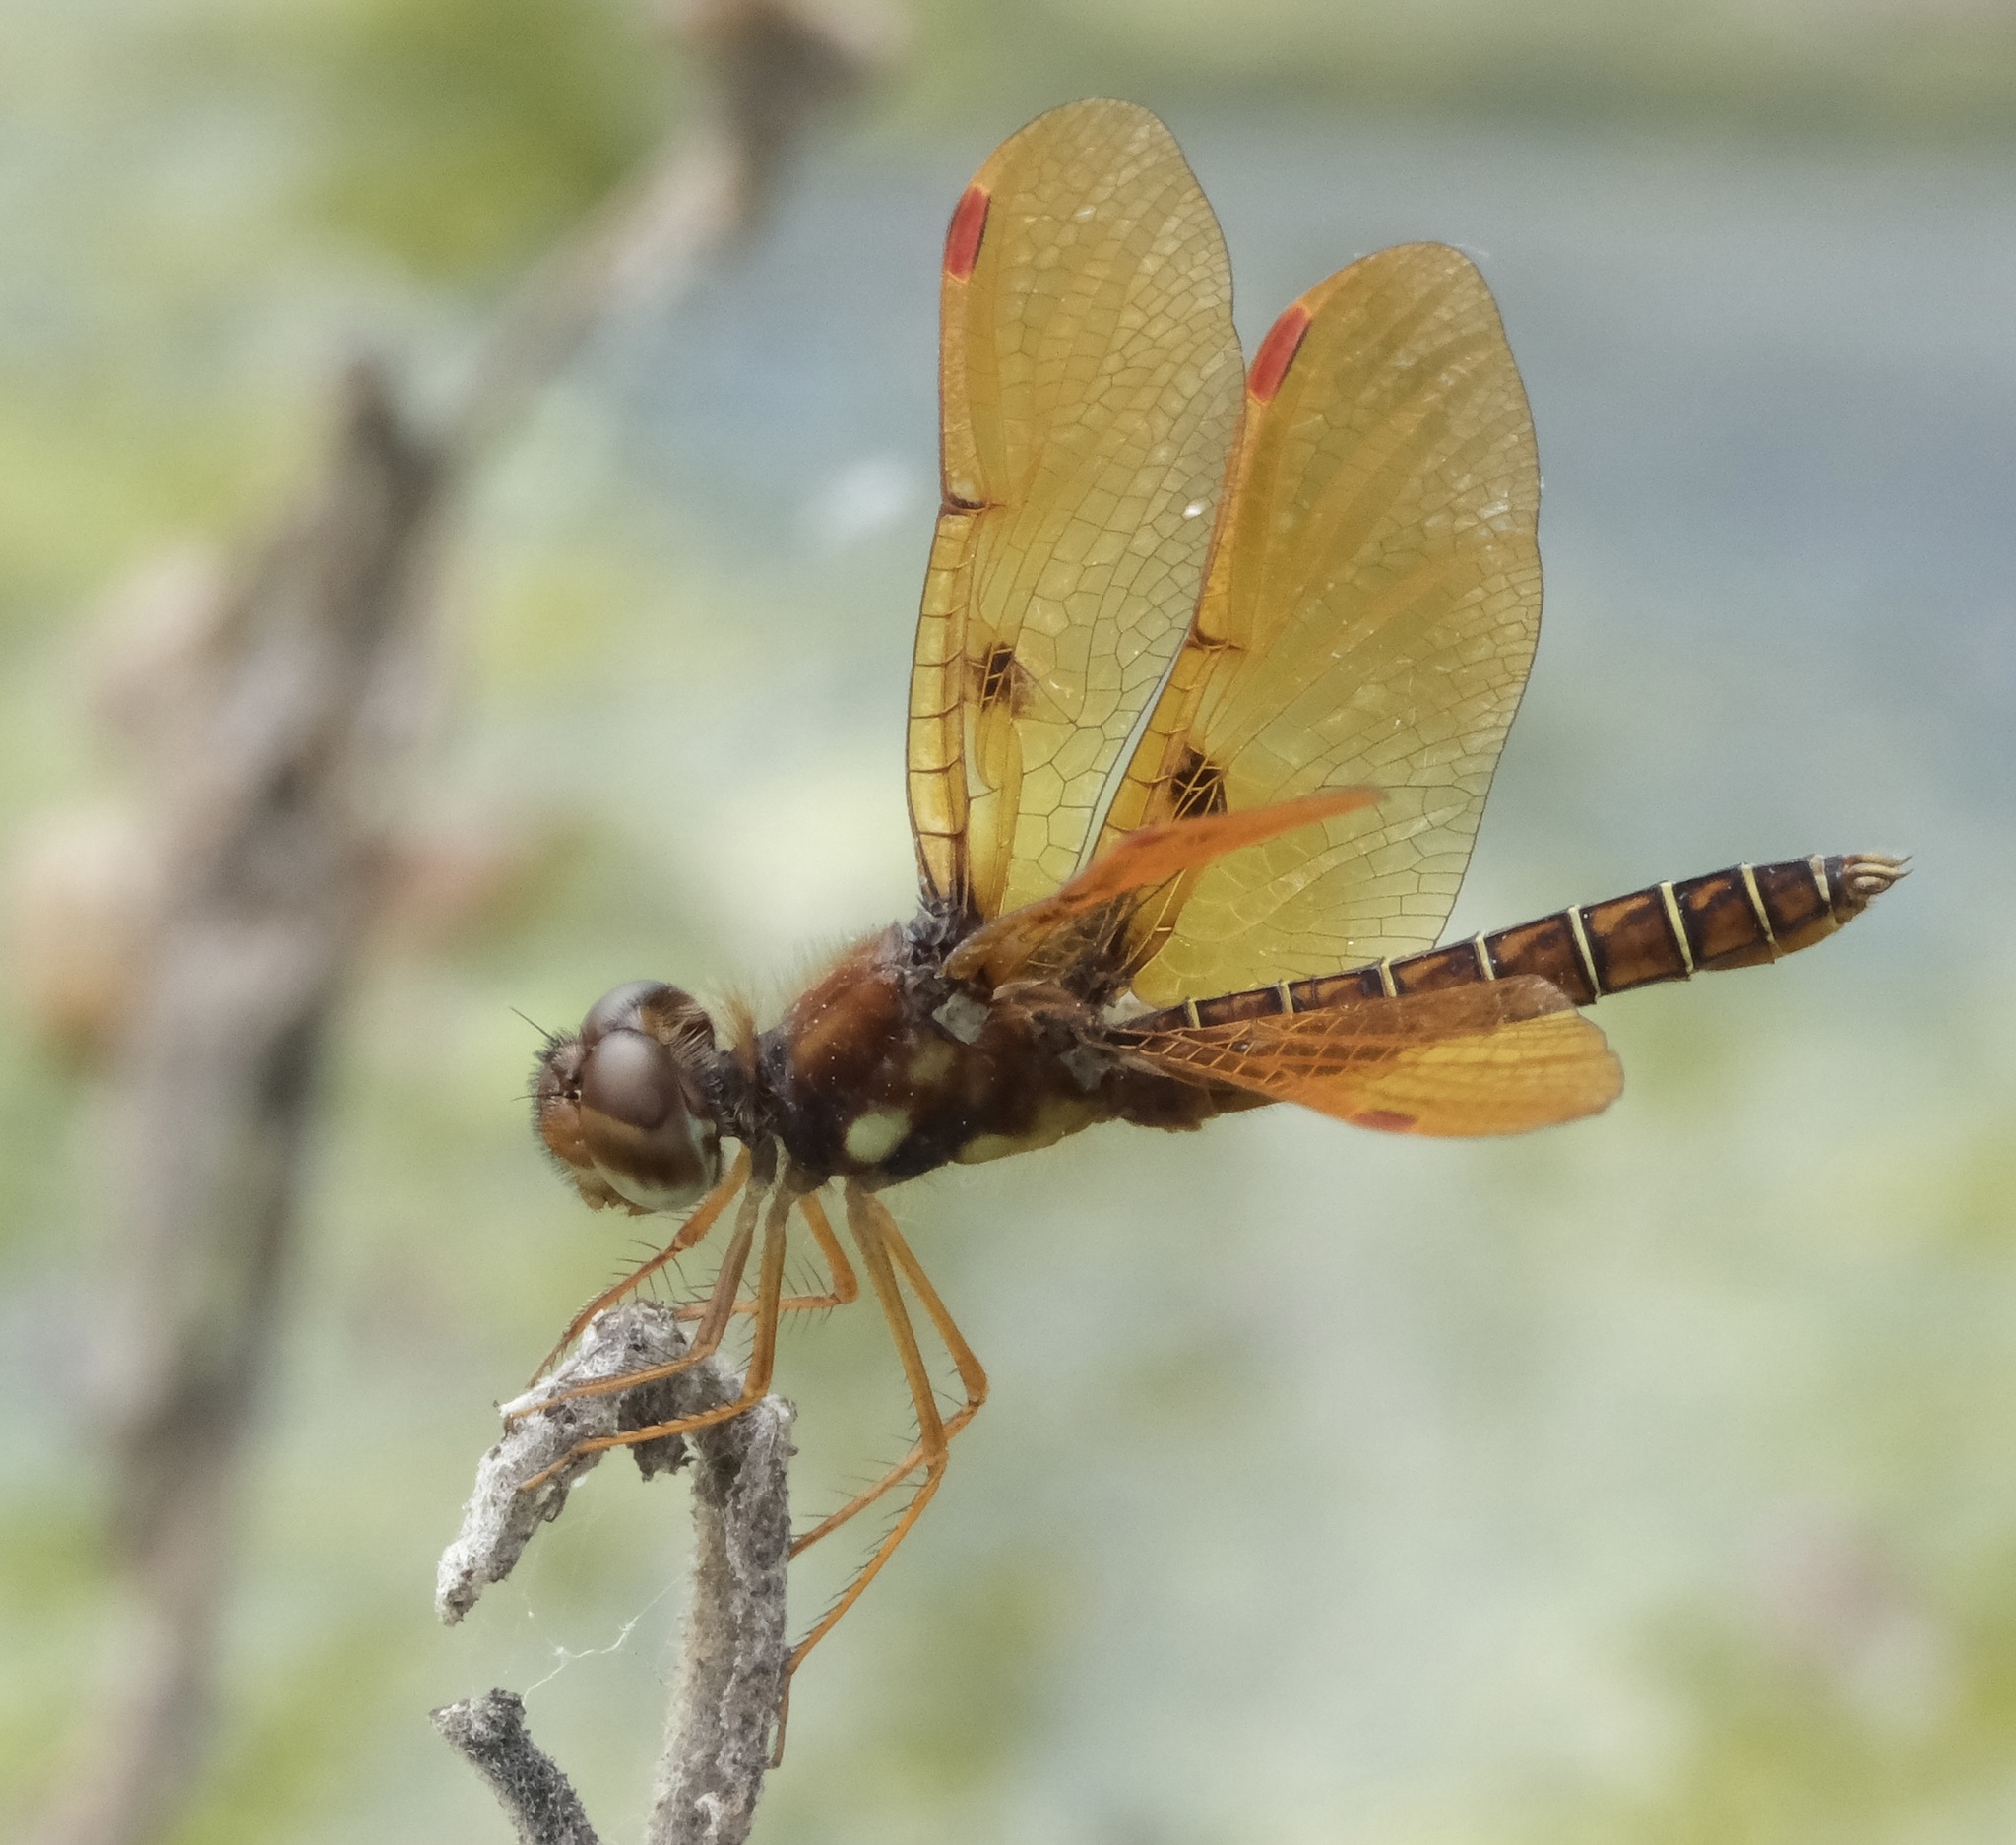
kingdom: Animalia
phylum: Arthropoda
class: Insecta
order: Odonata
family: Libellulidae
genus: Perithemis
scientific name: Perithemis tenera
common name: Eastern amberwing
